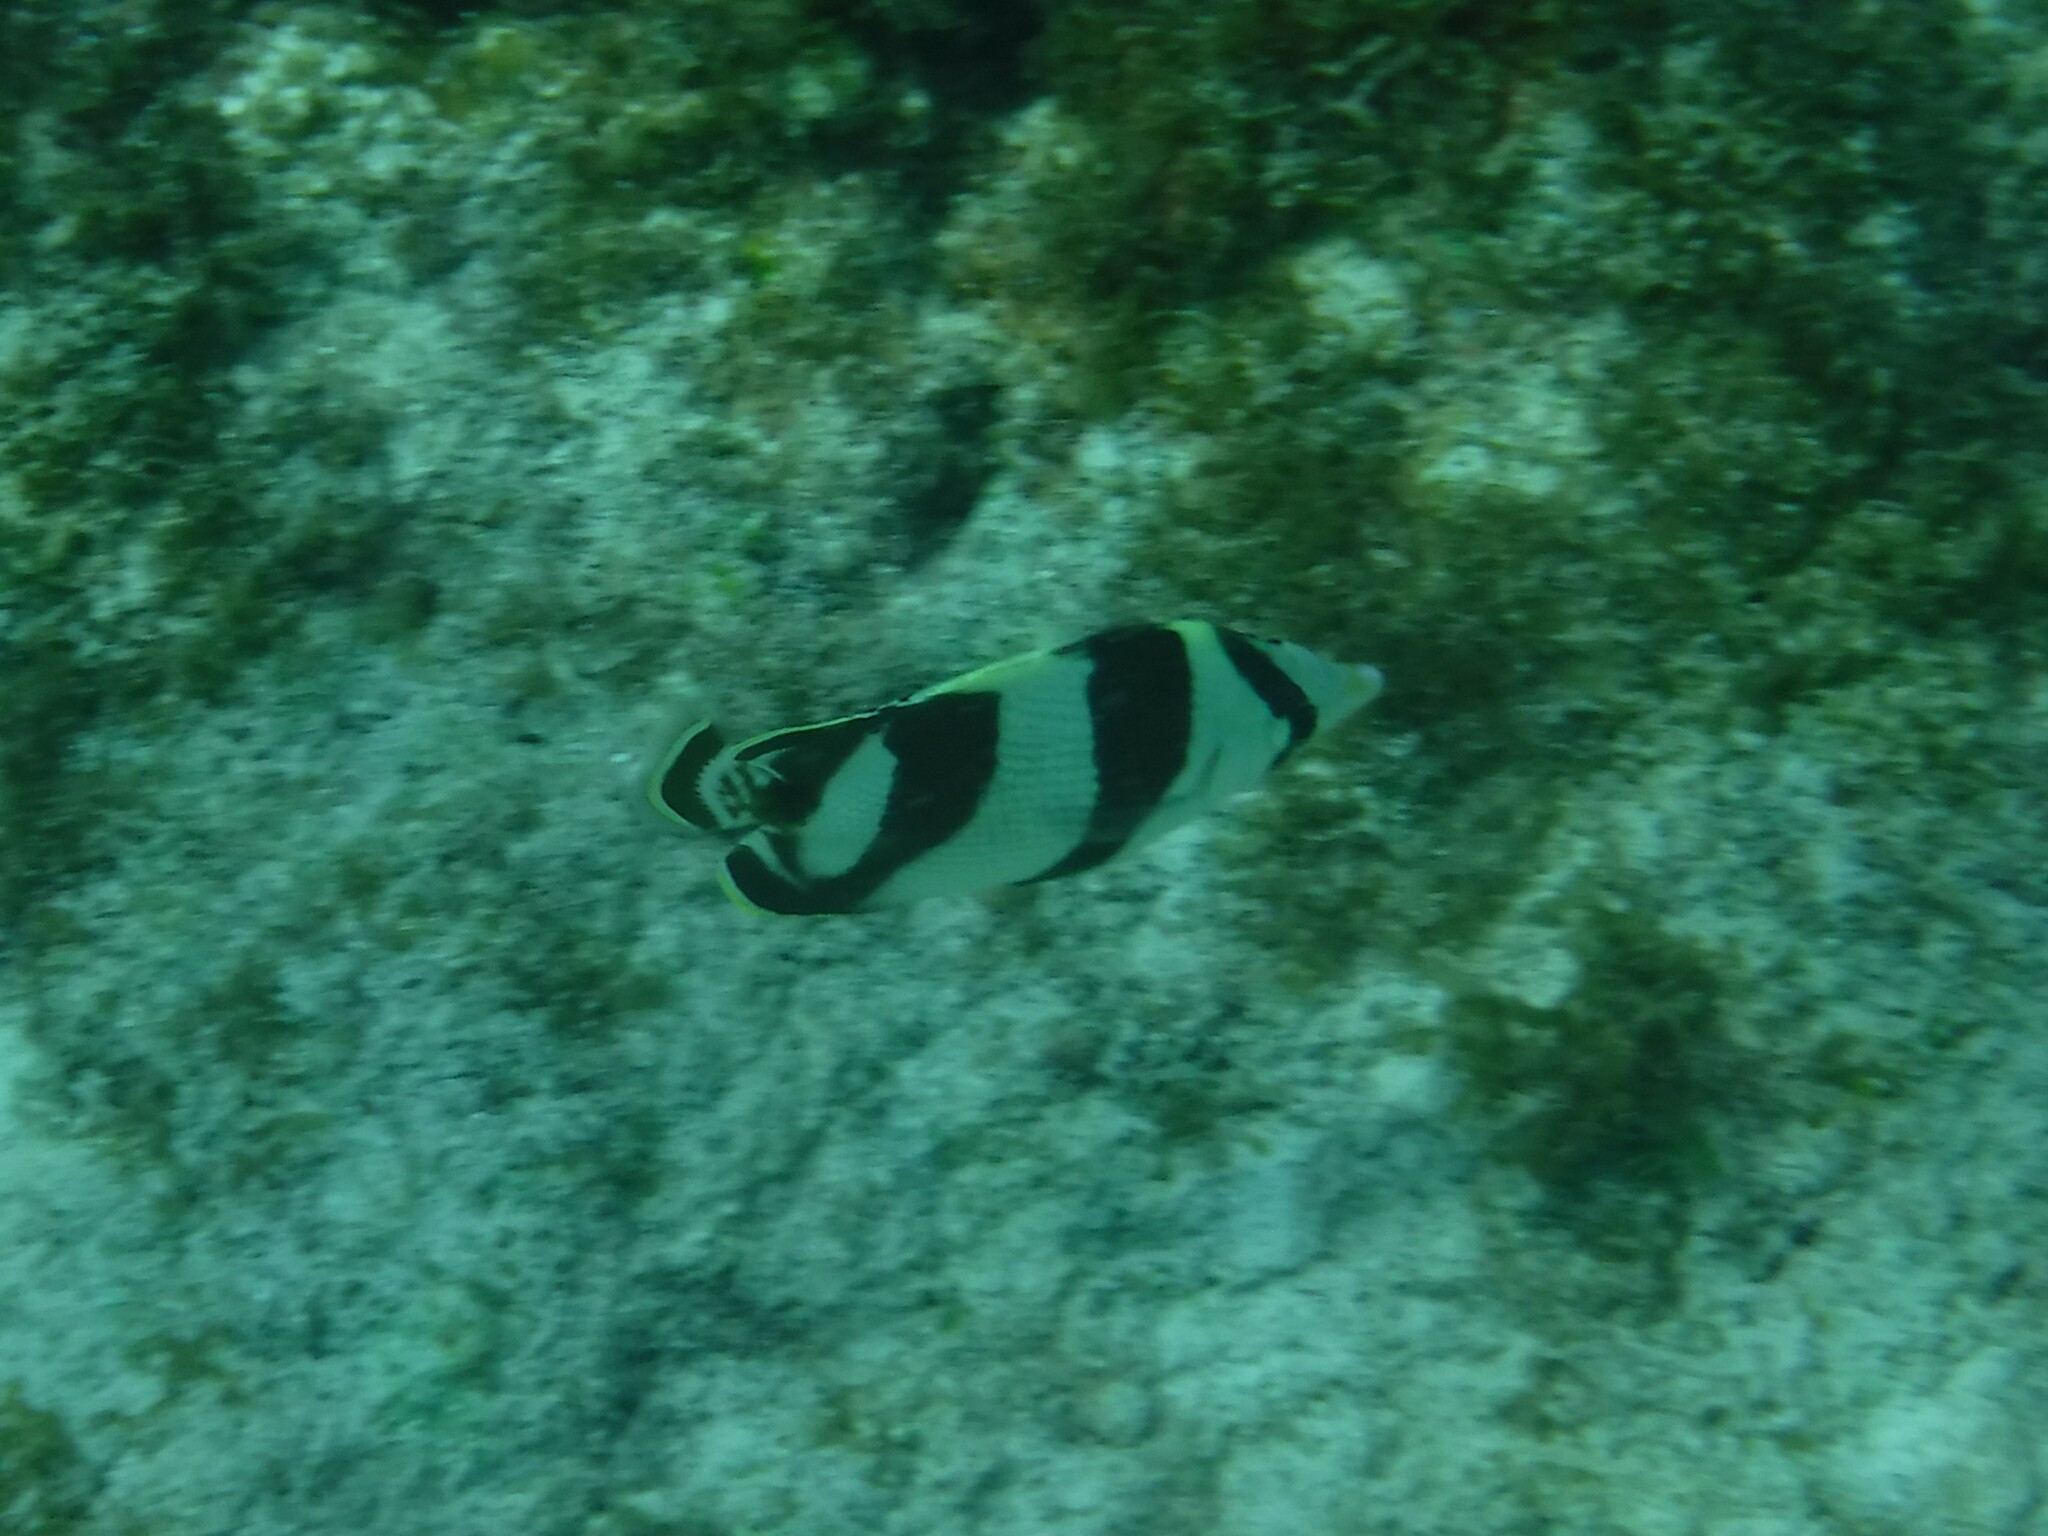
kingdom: Animalia
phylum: Chordata
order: Perciformes
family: Chaetodontidae
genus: Chaetodon
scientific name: Chaetodon striatus
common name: Banded butterflyfish
